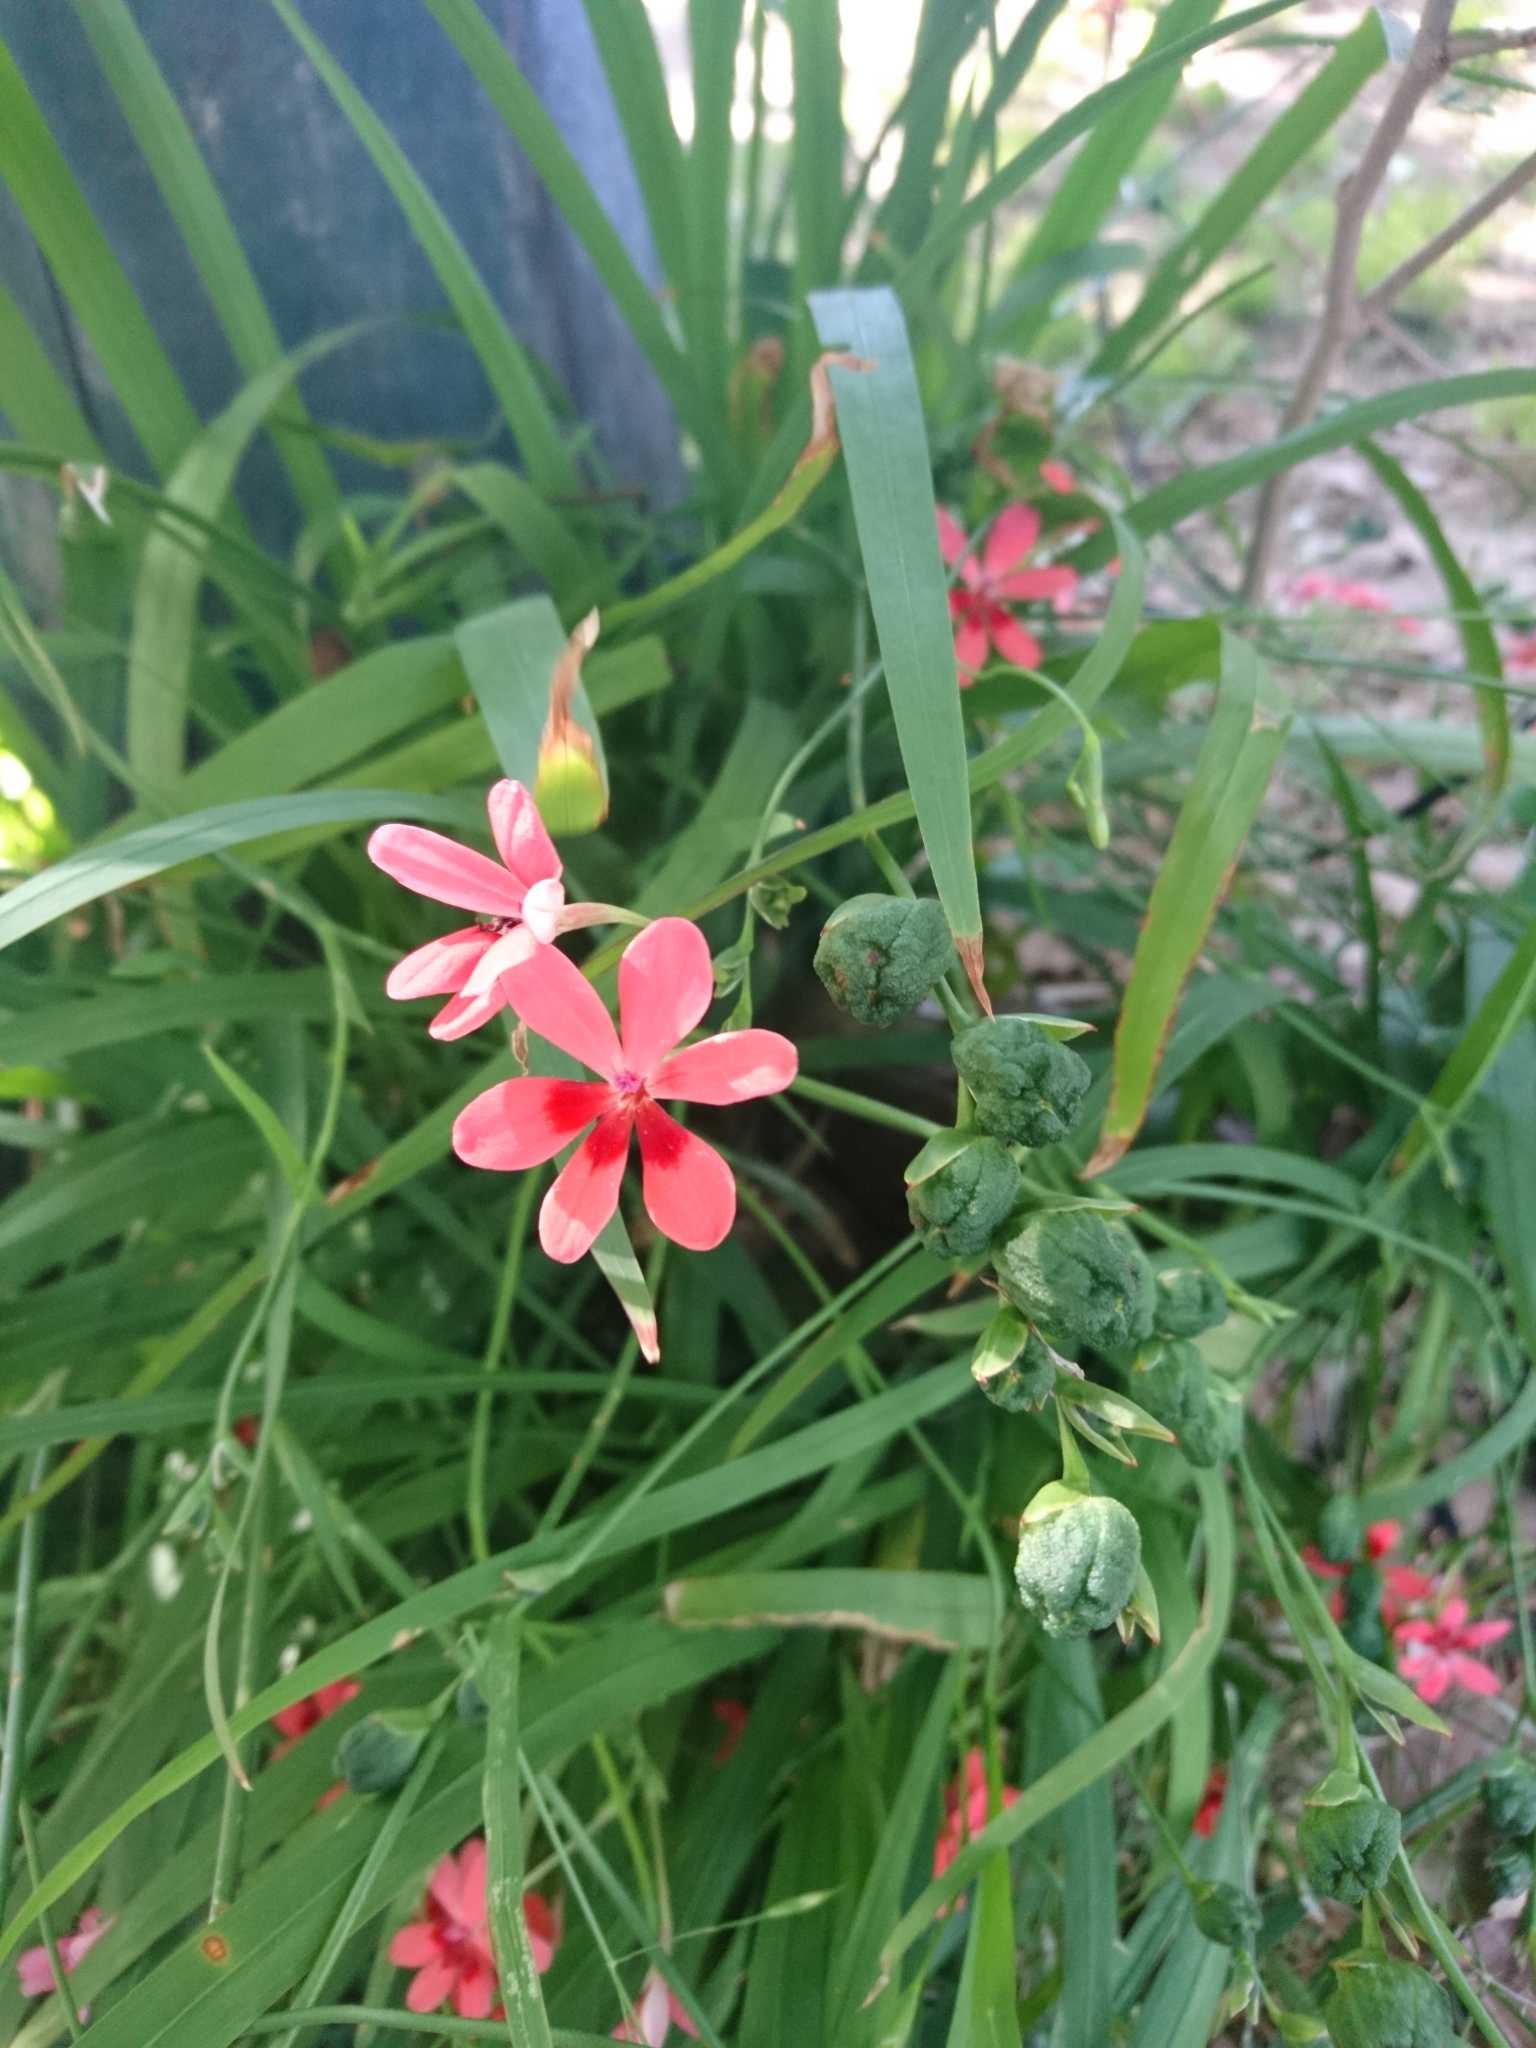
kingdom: Plantae
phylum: Tracheophyta
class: Liliopsida
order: Asparagales
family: Iridaceae
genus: Freesia
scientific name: Freesia laxa
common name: False freesia
